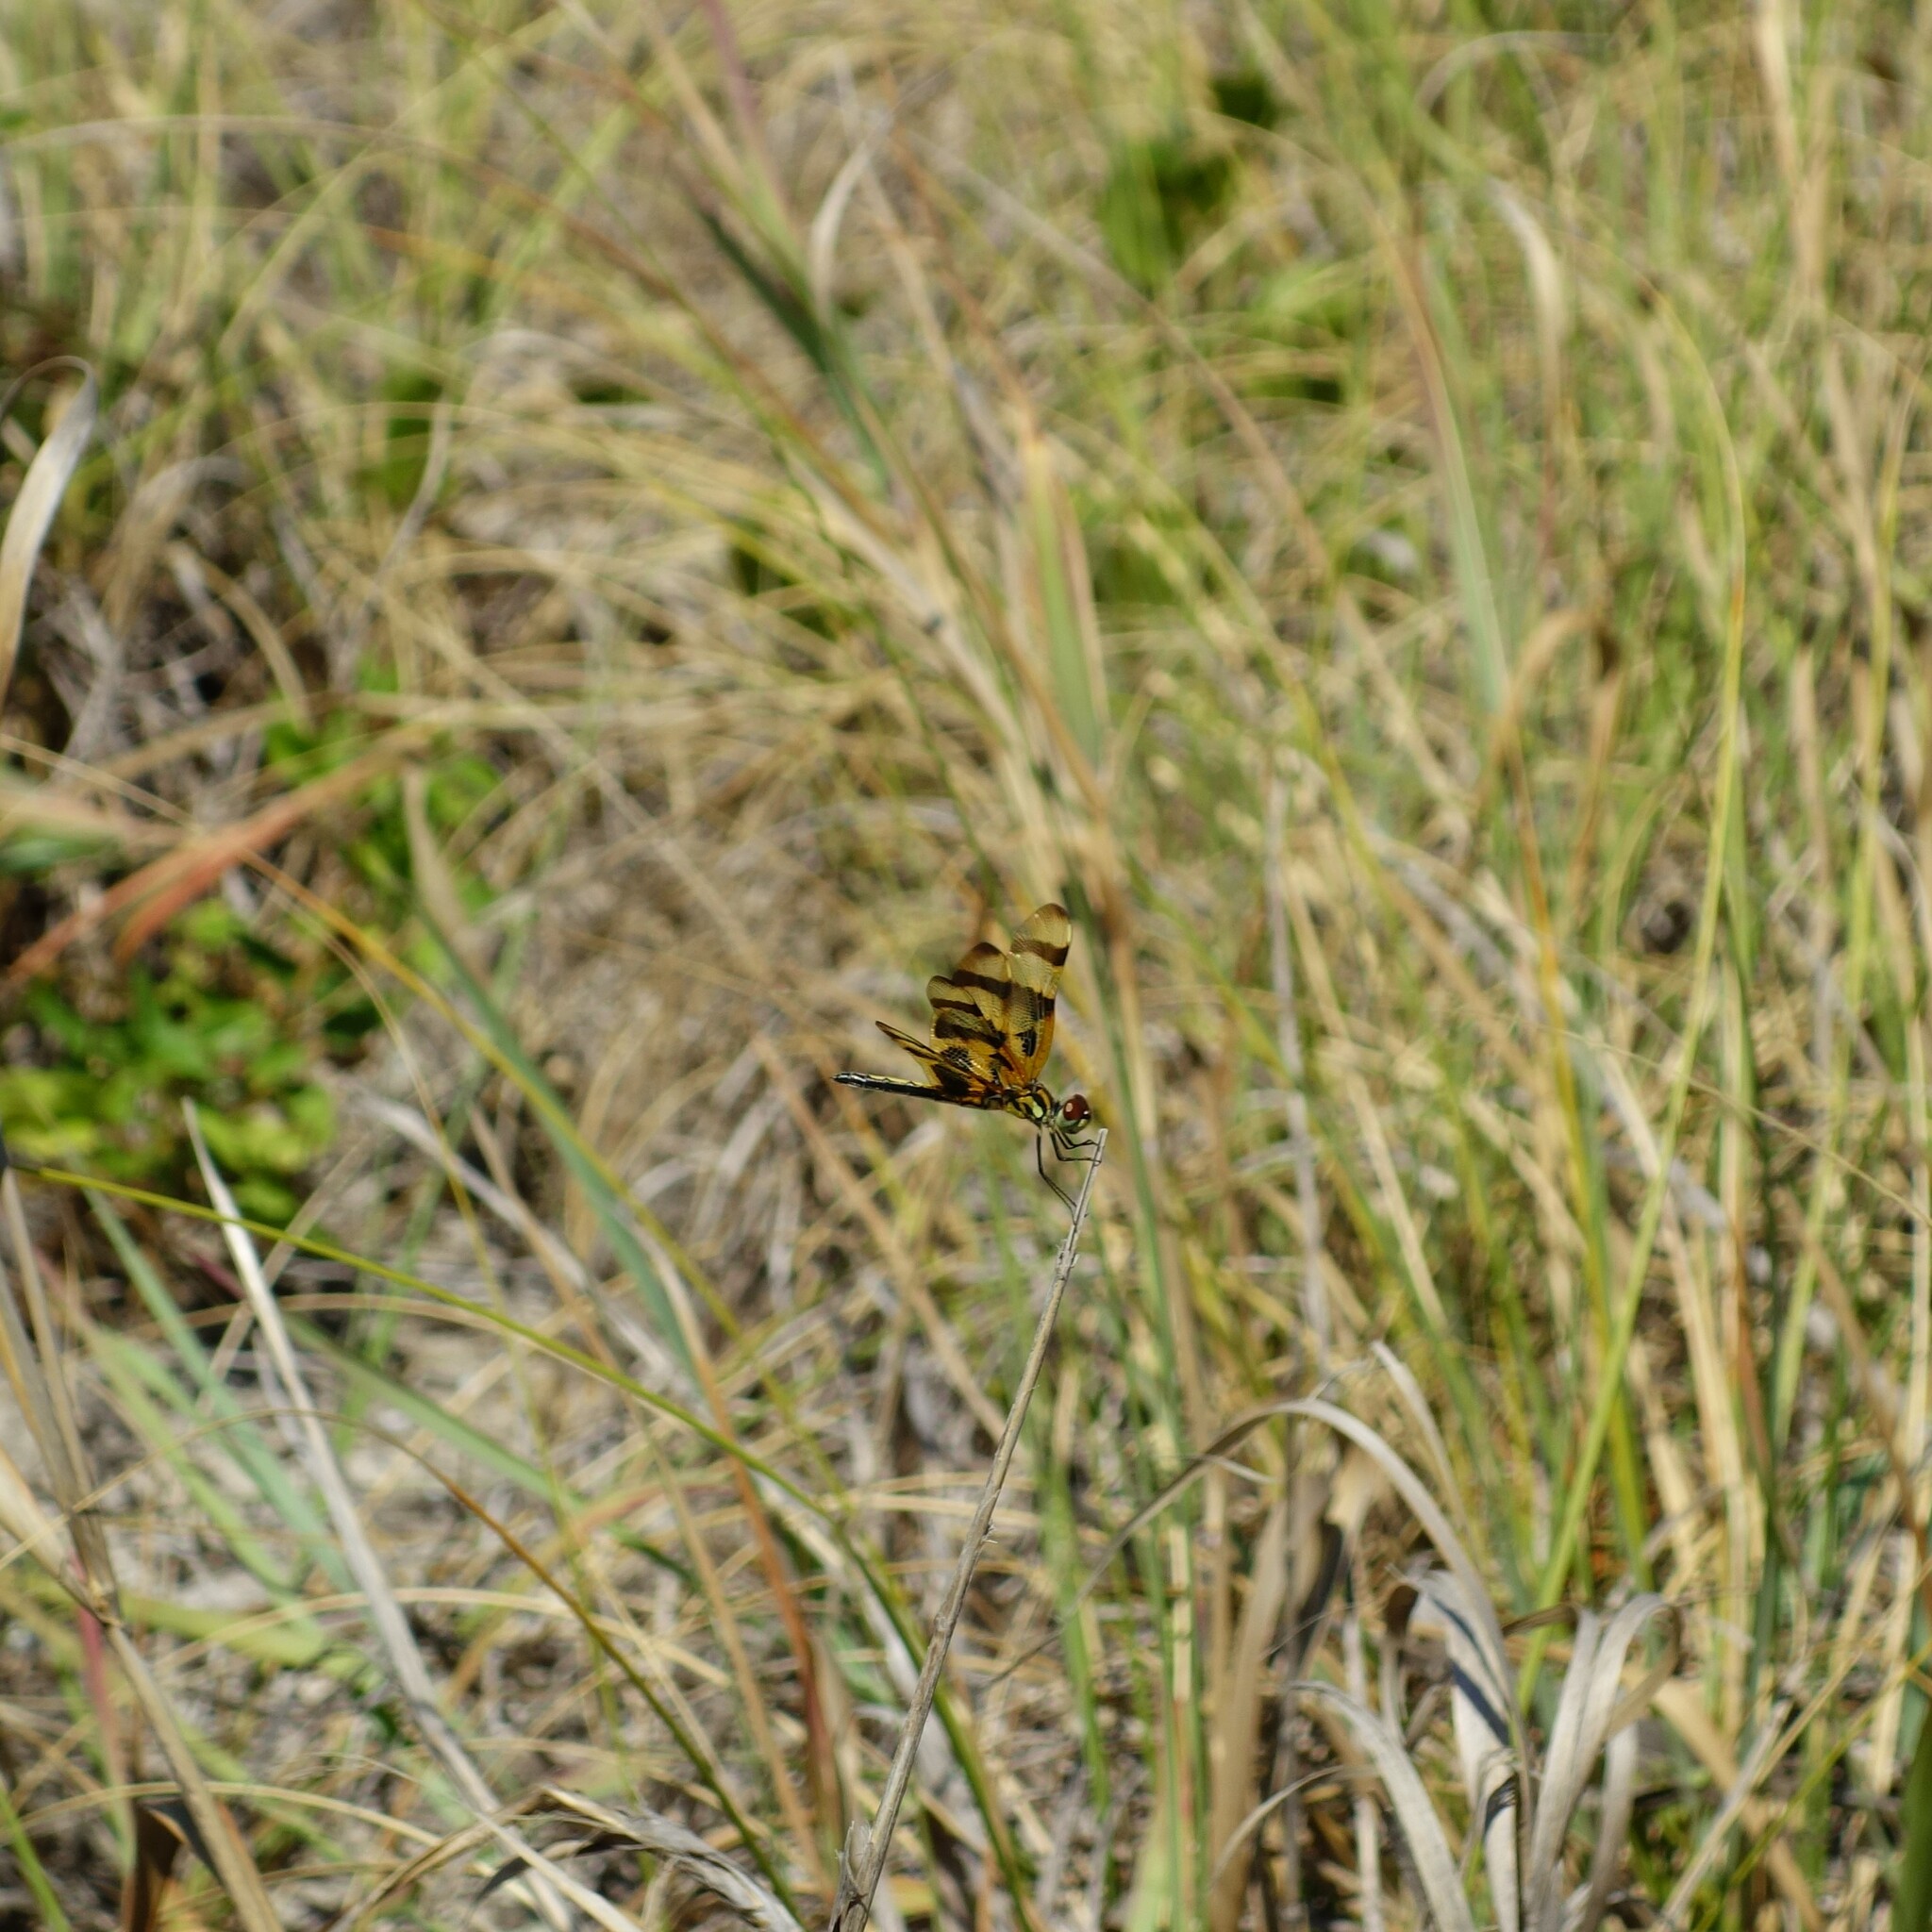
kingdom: Animalia
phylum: Arthropoda
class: Insecta
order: Odonata
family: Libellulidae
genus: Celithemis
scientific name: Celithemis eponina
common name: Halloween pennant
